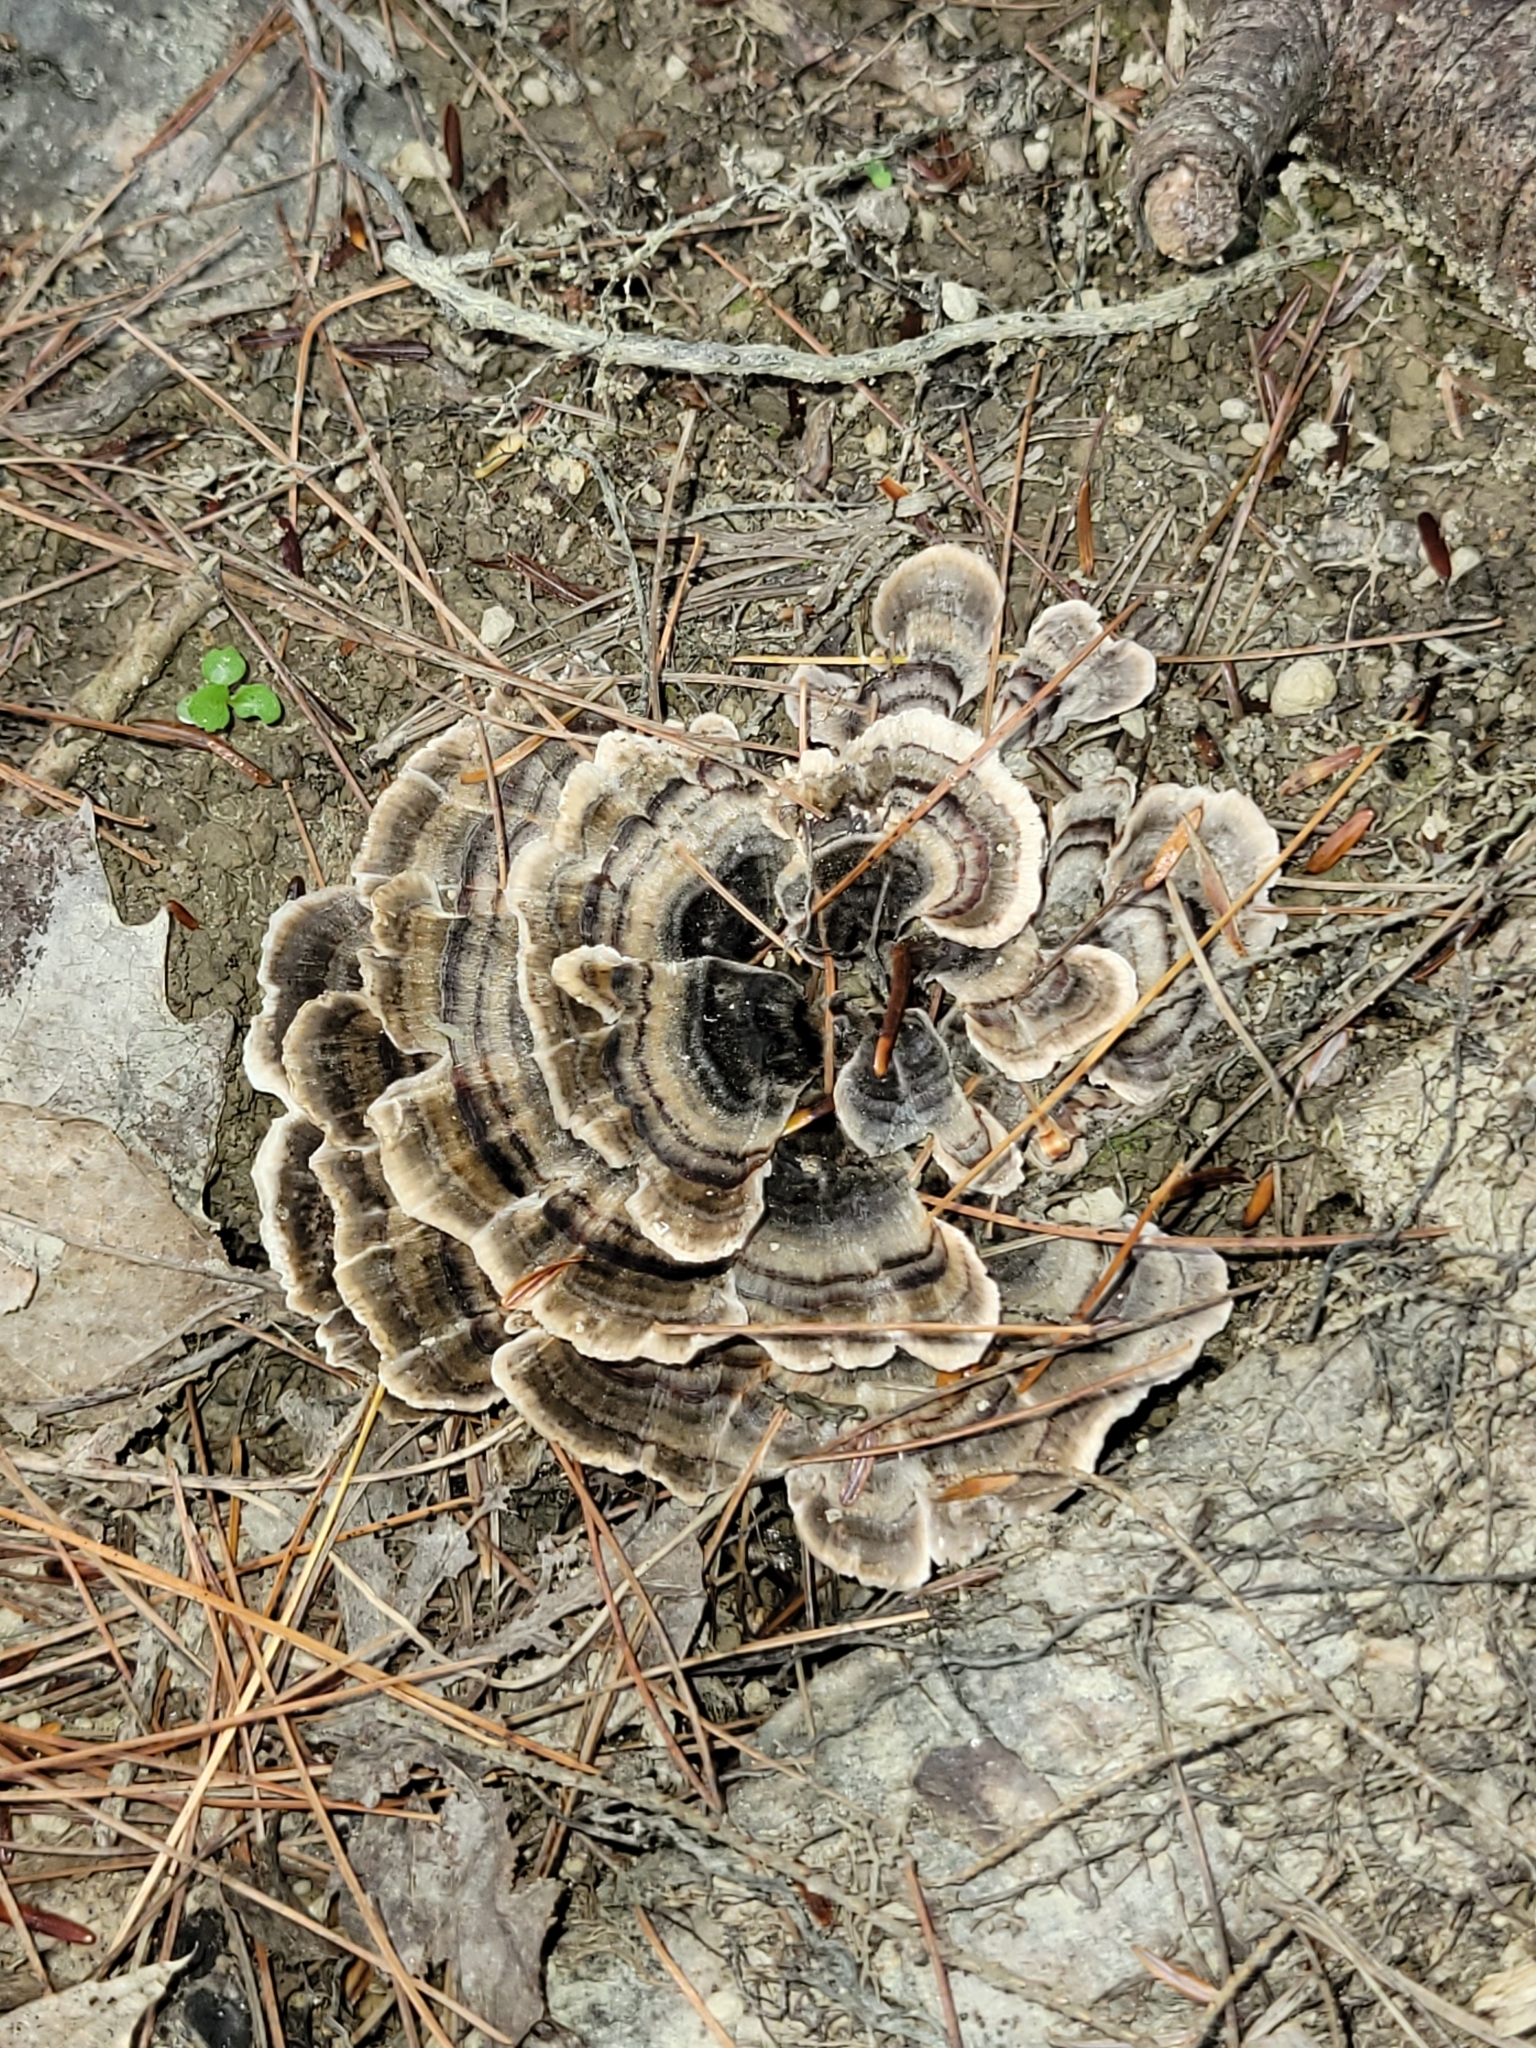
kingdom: Fungi
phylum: Basidiomycota
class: Agaricomycetes
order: Polyporales
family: Polyporaceae
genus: Trametes
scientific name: Trametes versicolor
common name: Turkeytail
